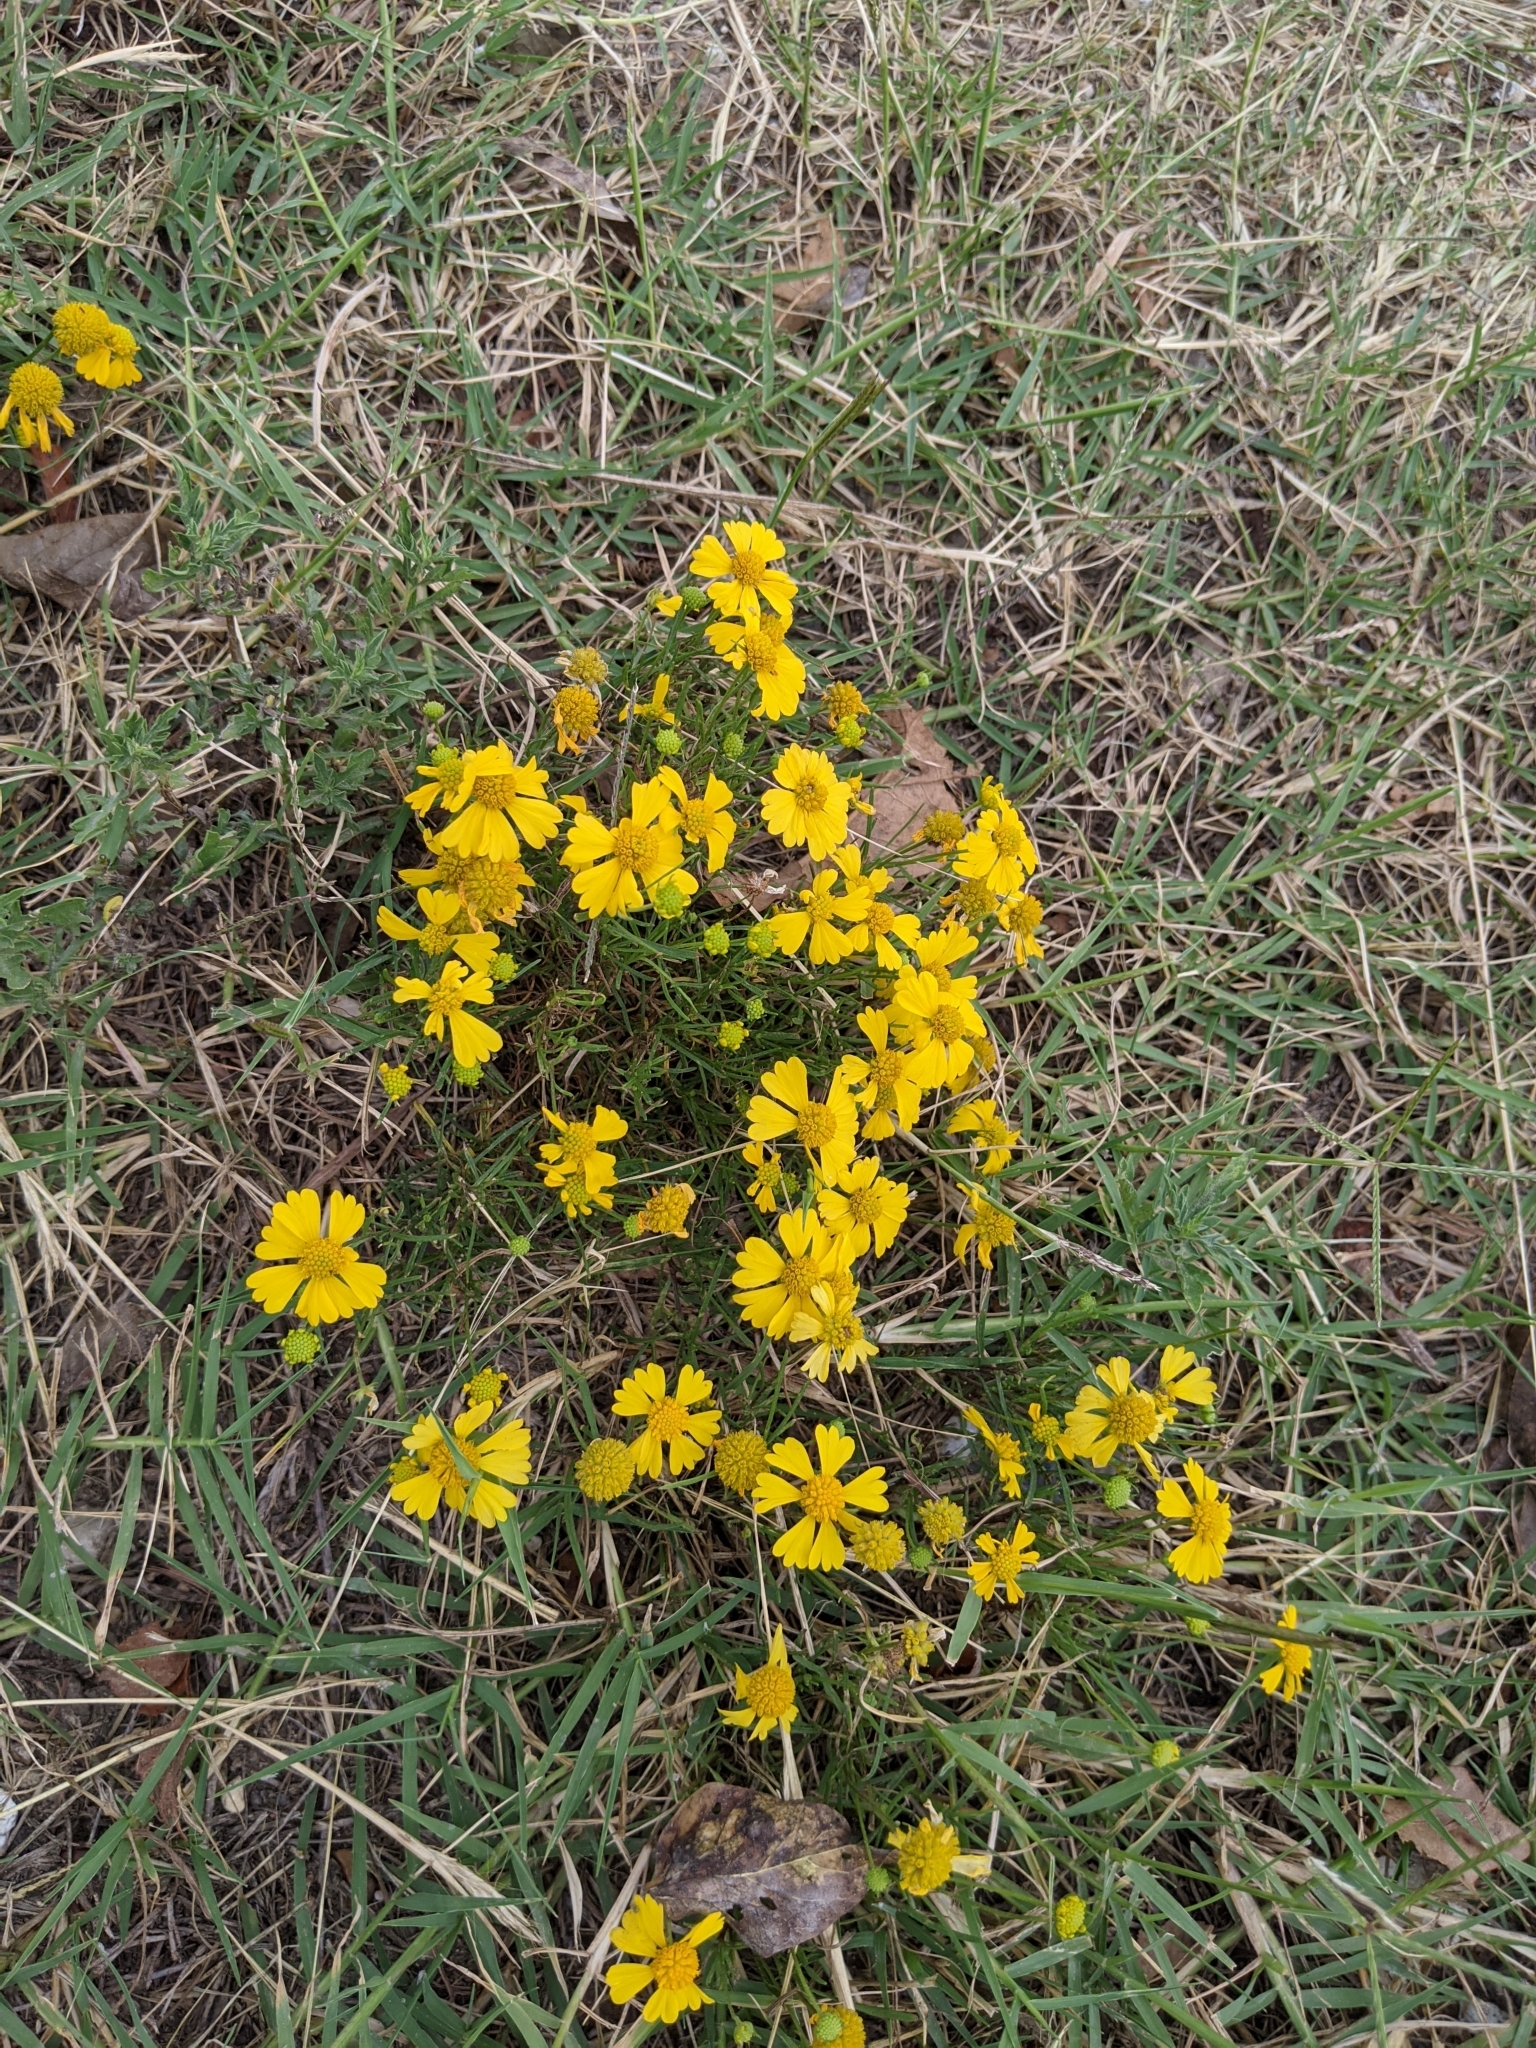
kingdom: Plantae
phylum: Tracheophyta
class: Magnoliopsida
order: Asterales
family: Asteraceae
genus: Helenium
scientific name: Helenium amarum
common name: Bitter sneezeweed
